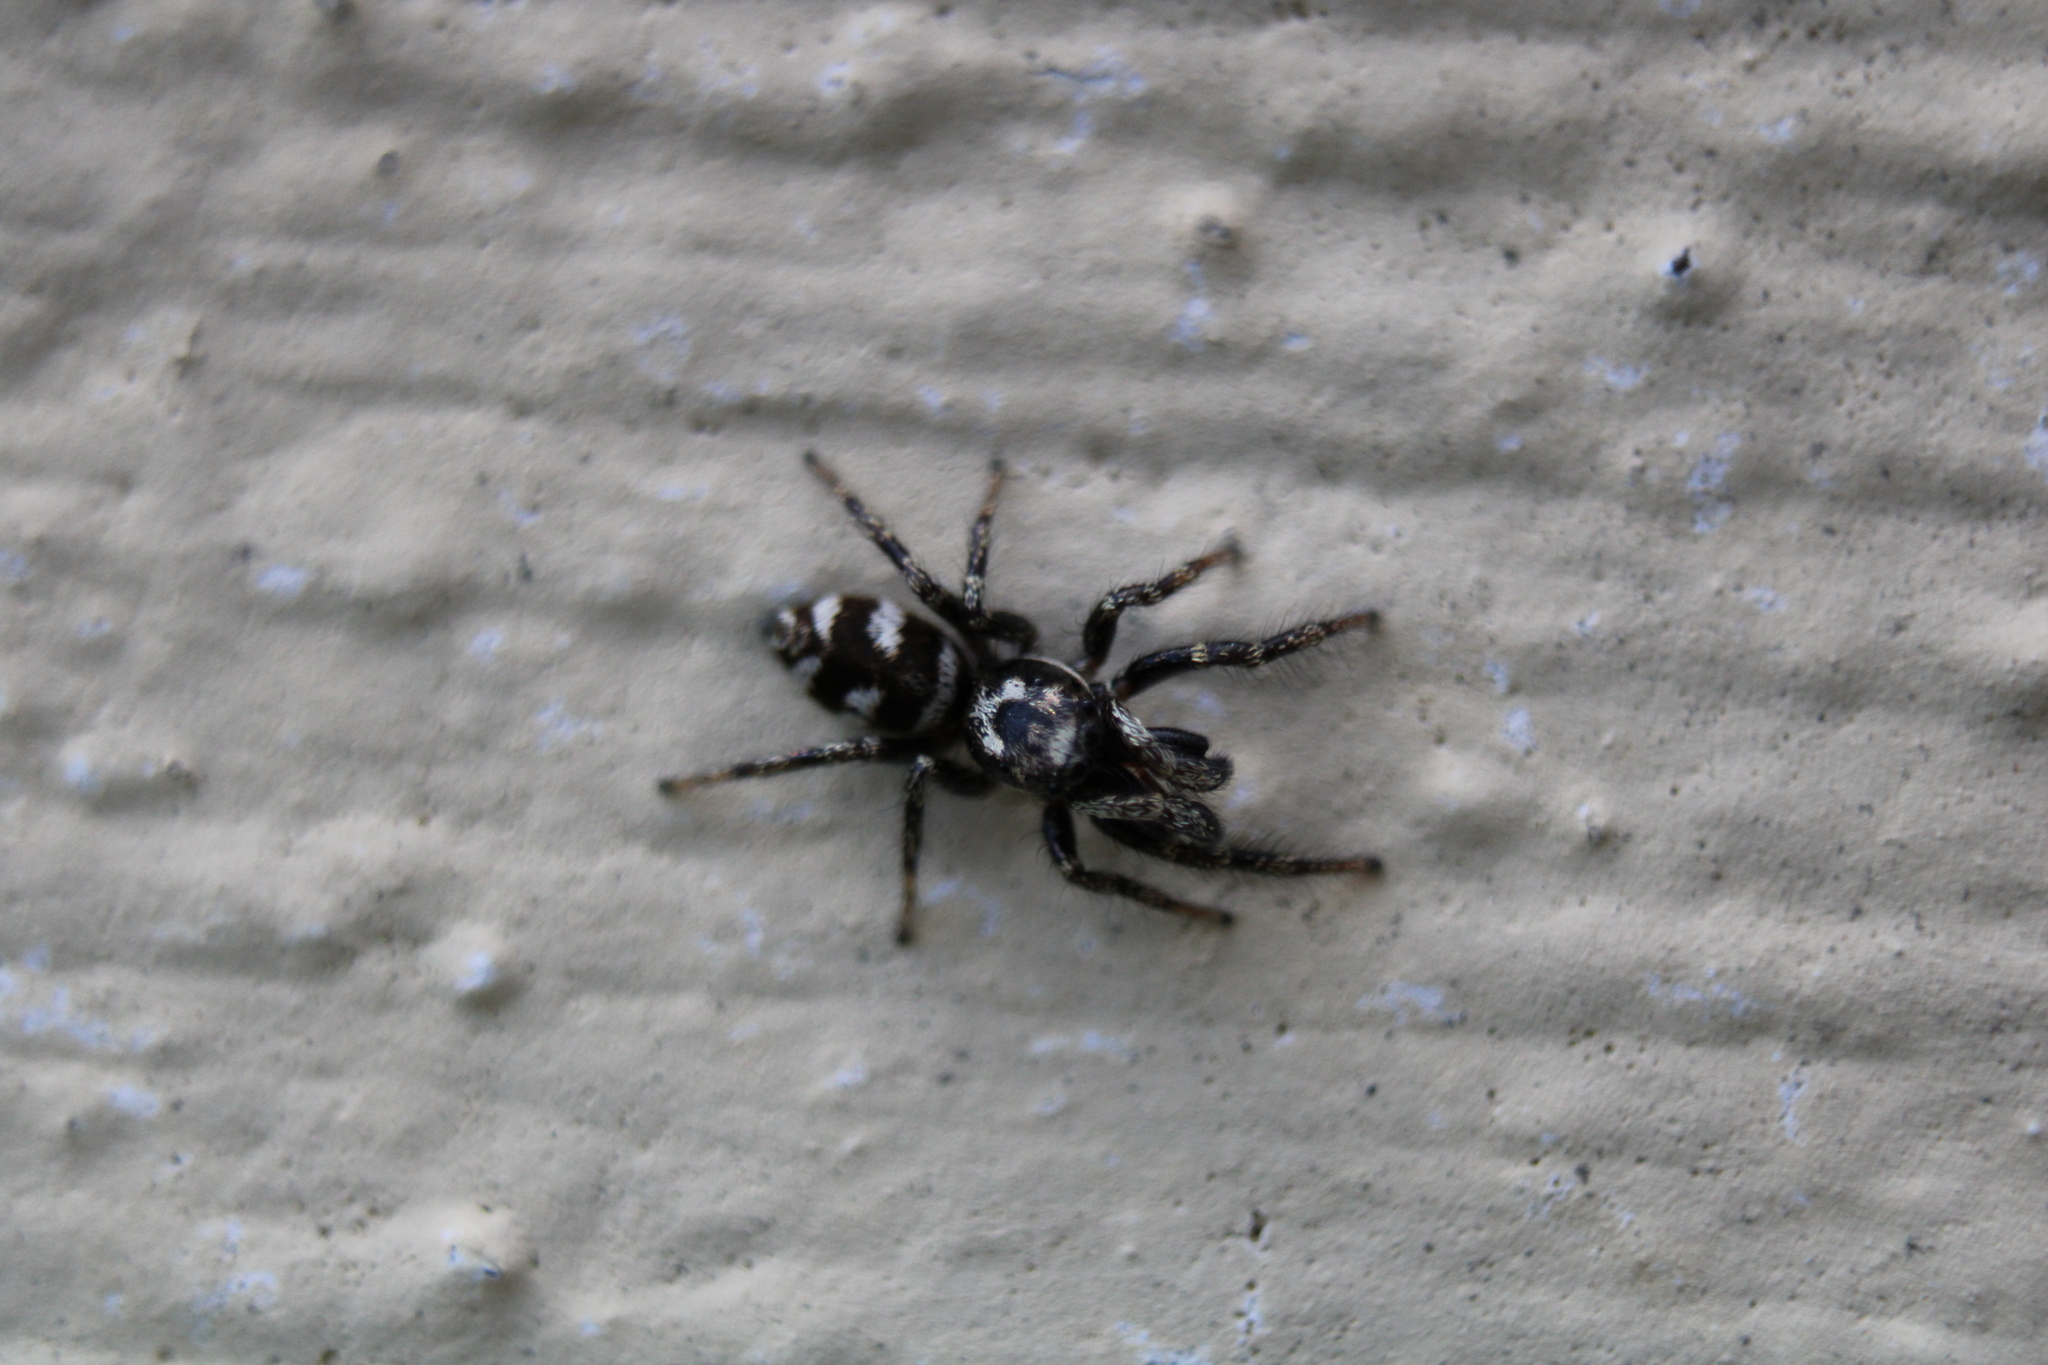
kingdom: Animalia
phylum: Arthropoda
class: Arachnida
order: Araneae
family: Salticidae
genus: Salticus
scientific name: Salticus scenicus
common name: Zebra jumper
